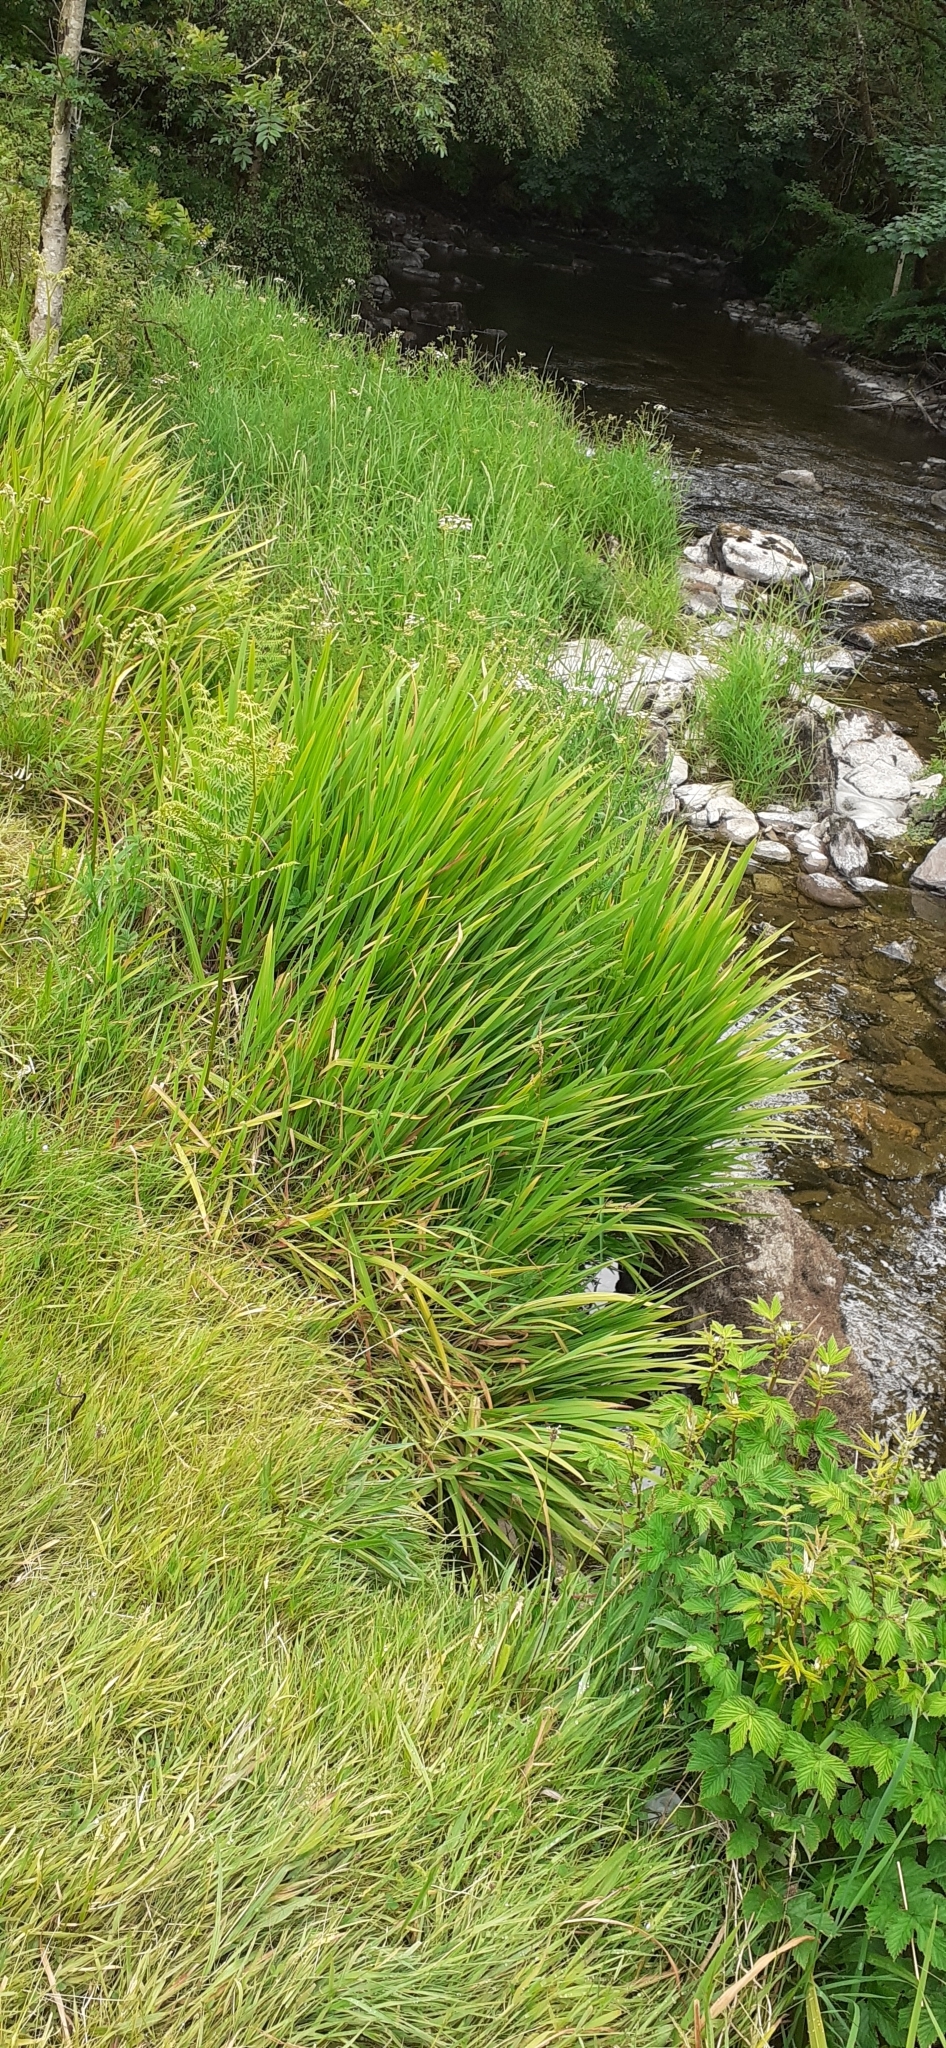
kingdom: Plantae
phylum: Tracheophyta
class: Liliopsida
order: Asparagales
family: Iridaceae
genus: Crocosmia
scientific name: Crocosmia crocosmiiflora
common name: Montbretia
